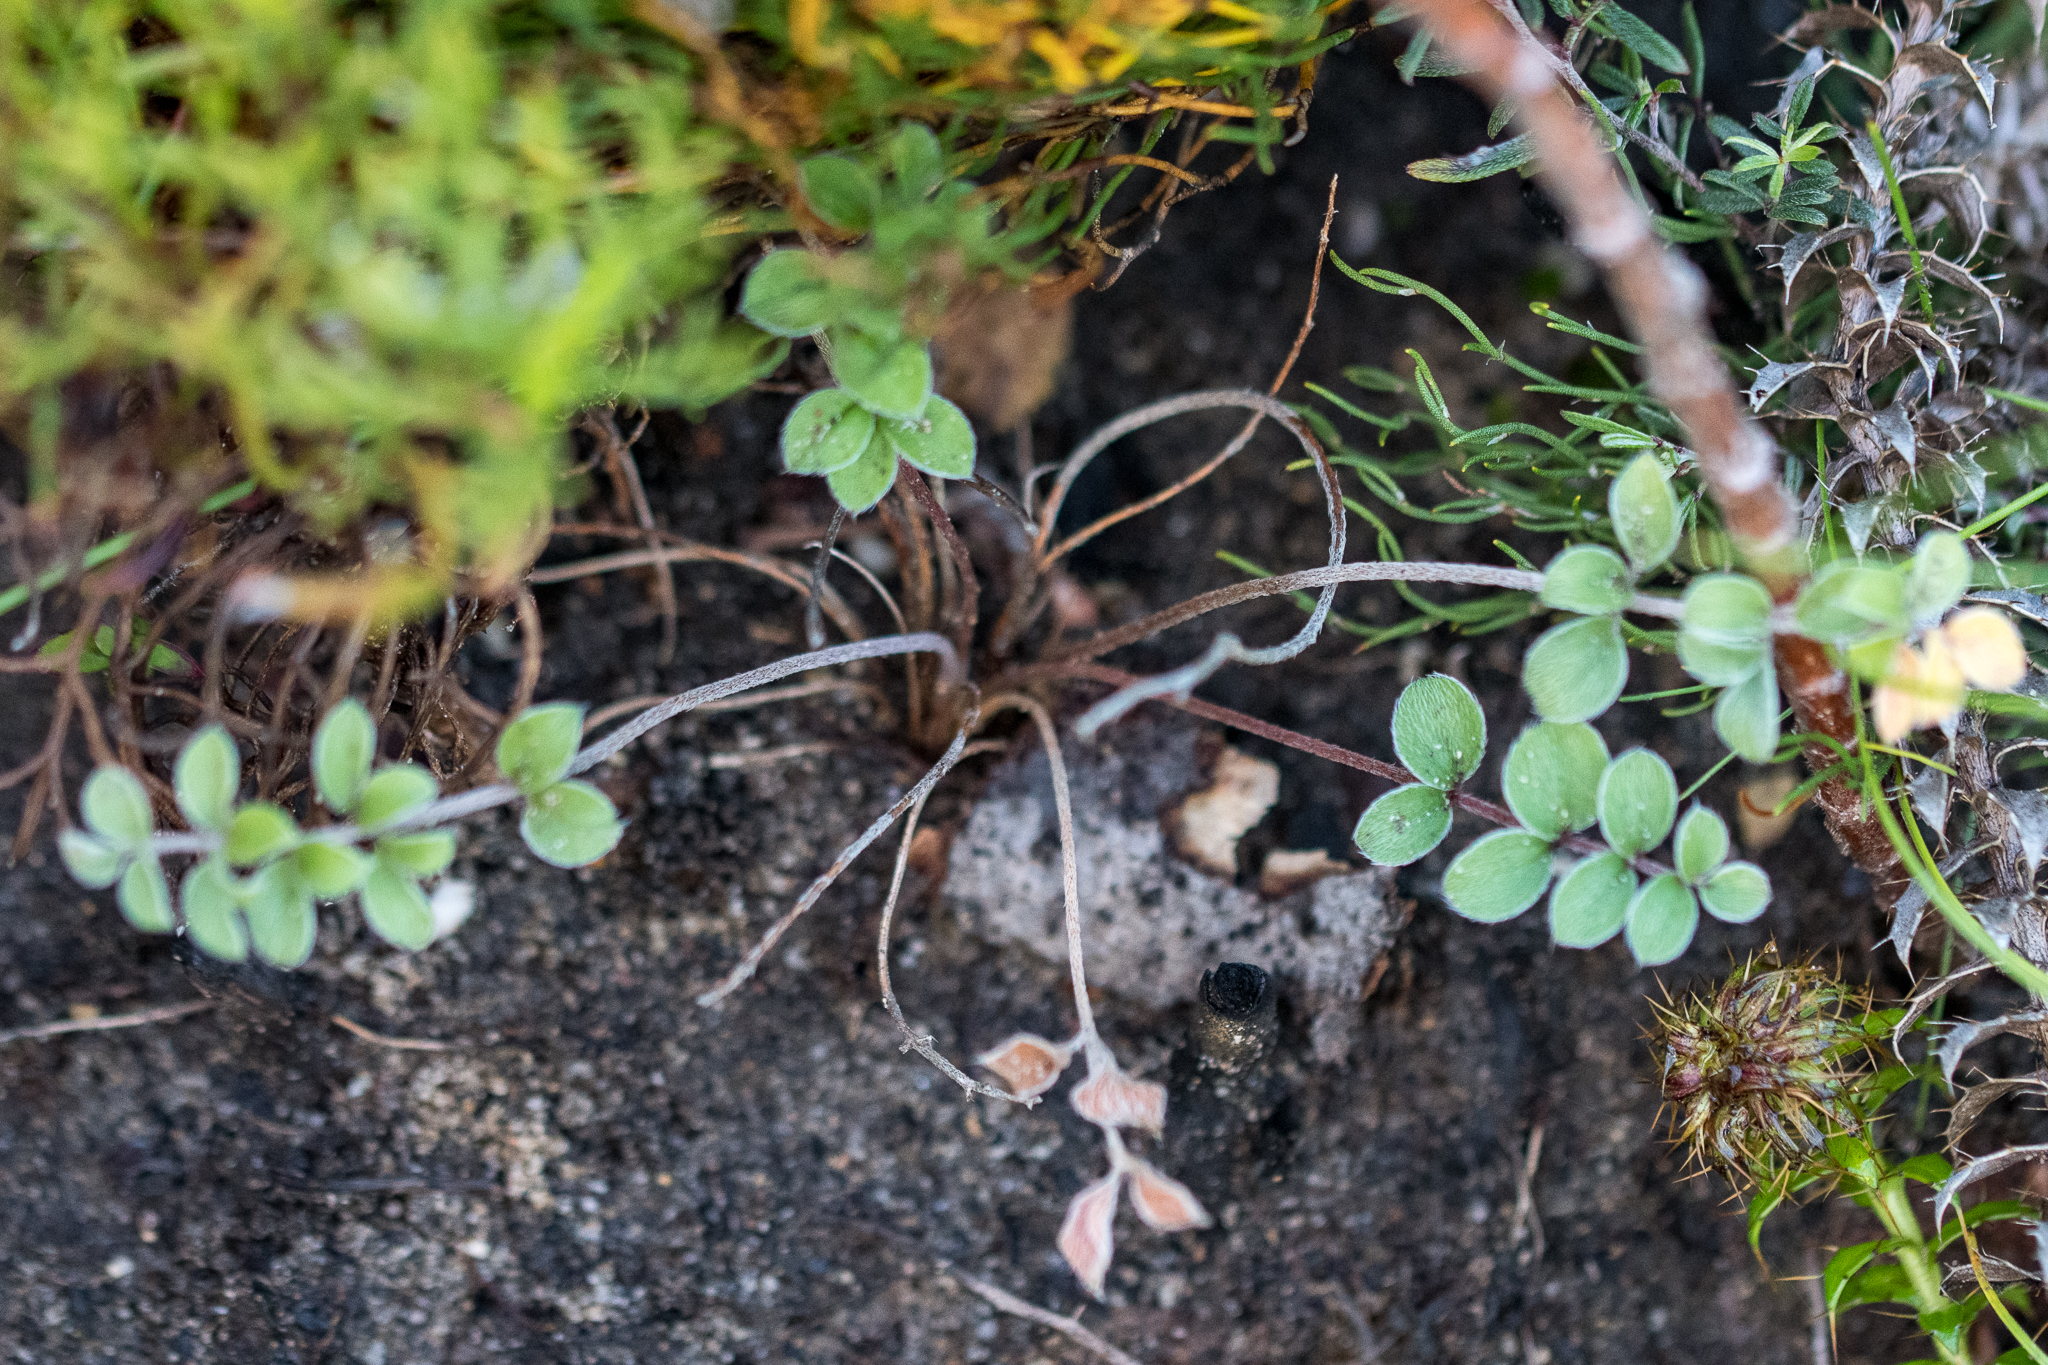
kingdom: Plantae
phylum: Tracheophyta
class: Magnoliopsida
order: Geraniales
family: Geraniaceae
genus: Pelargonium
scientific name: Pelargonium pinnatum
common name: Pinnated pelargonium
